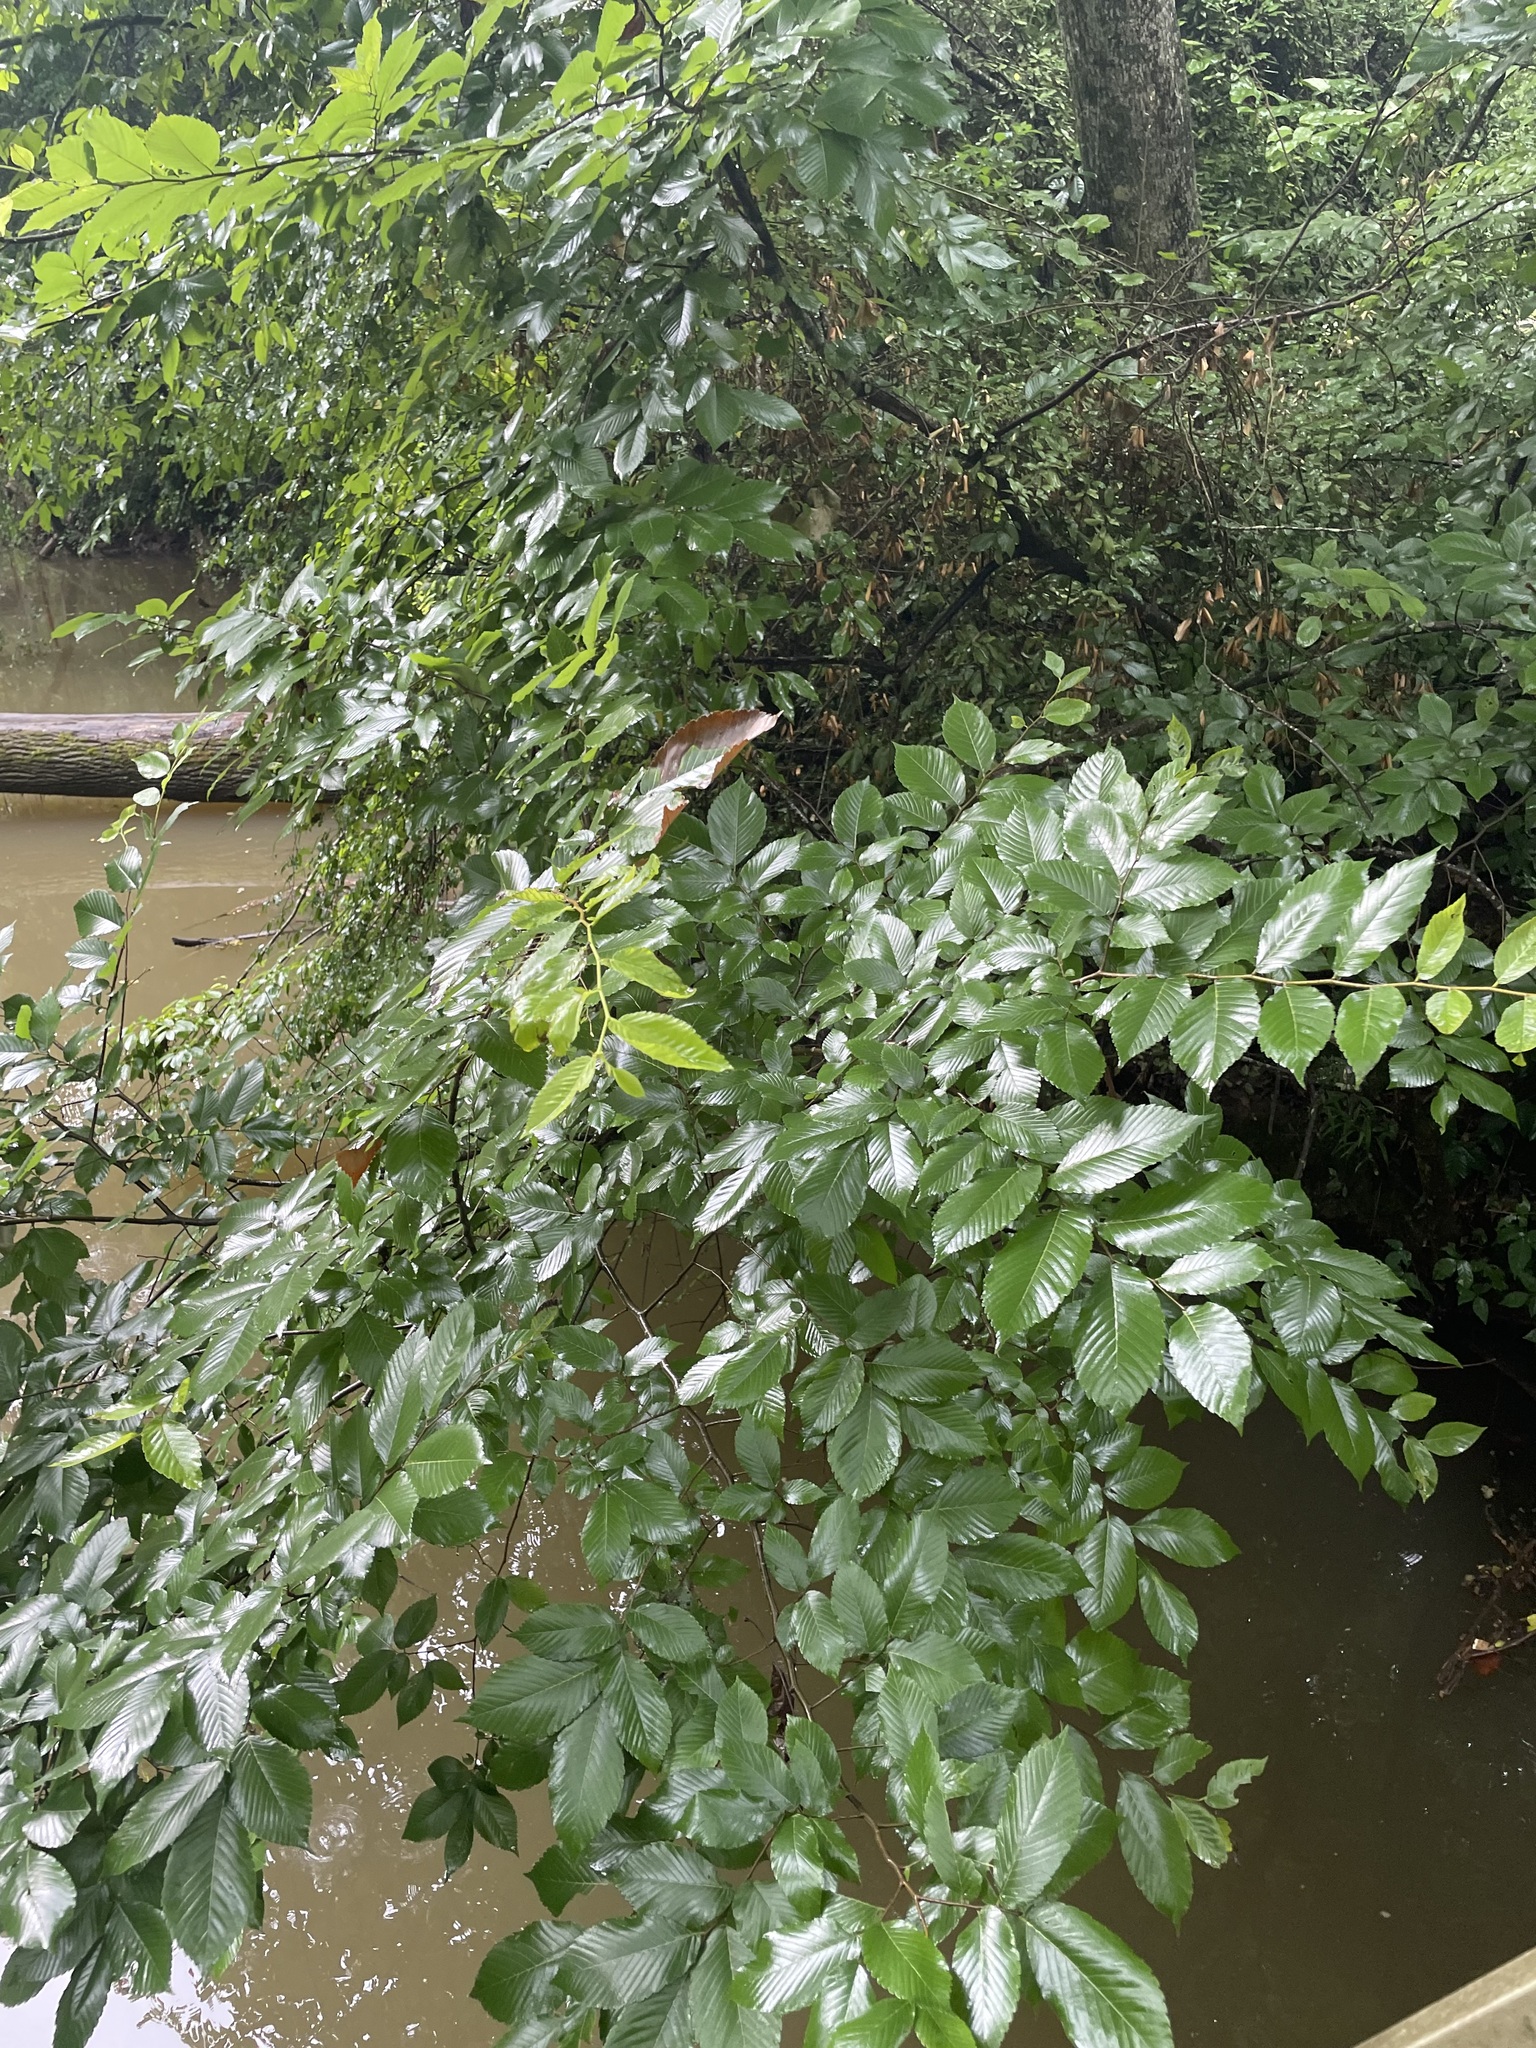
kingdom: Plantae
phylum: Tracheophyta
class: Magnoliopsida
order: Rosales
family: Ulmaceae
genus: Ulmus
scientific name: Ulmus americana
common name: American elm
